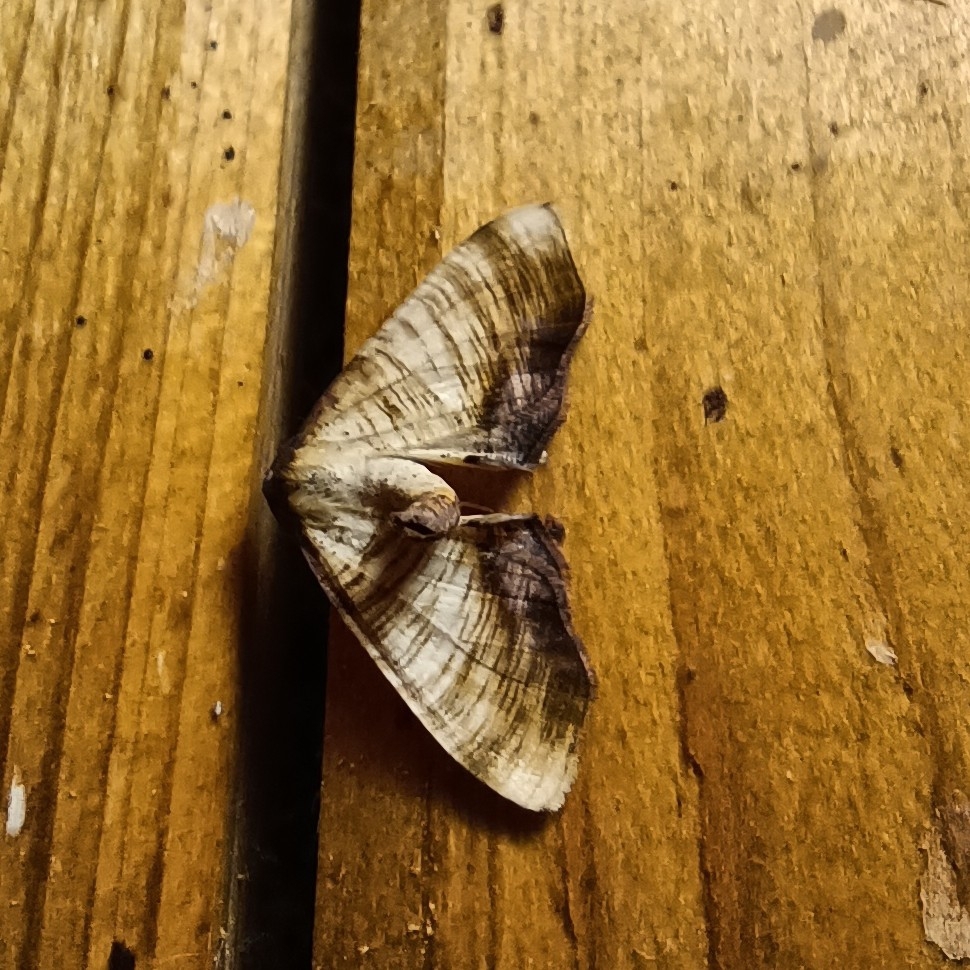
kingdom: Animalia
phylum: Arthropoda
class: Insecta
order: Lepidoptera
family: Geometridae
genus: Plagodis
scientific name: Plagodis dolabraria
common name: Scorched wing
